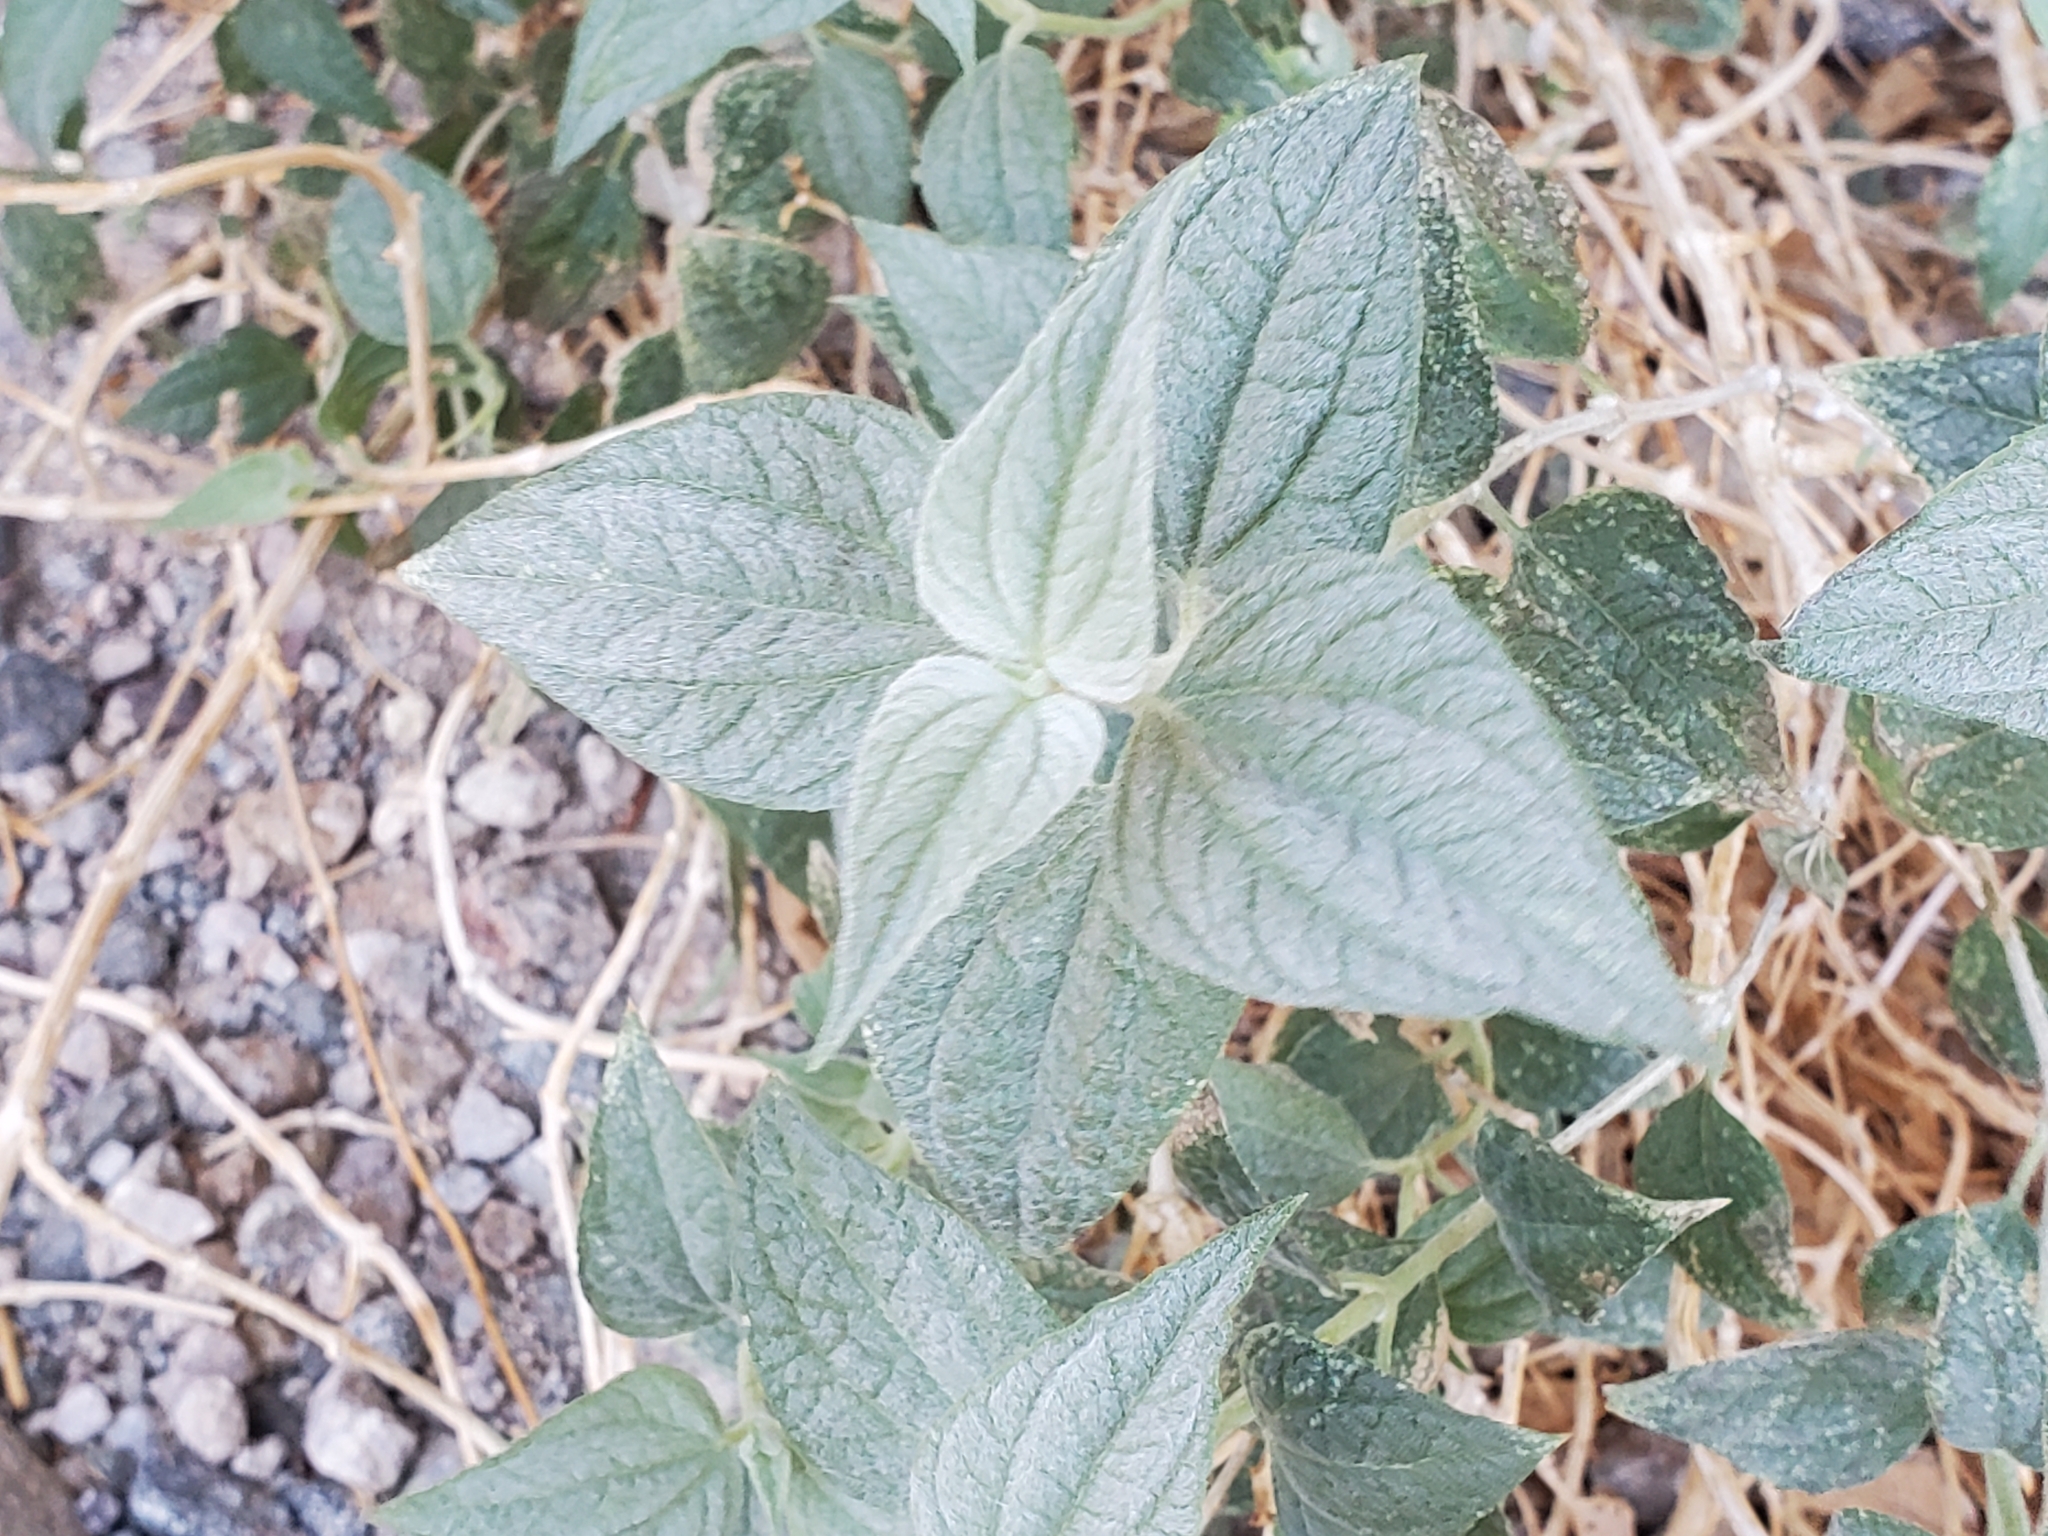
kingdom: Plantae
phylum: Tracheophyta
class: Magnoliopsida
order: Asterales
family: Asteraceae
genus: Bahiopsis
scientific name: Bahiopsis reticulata
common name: Death valley goldeneye
